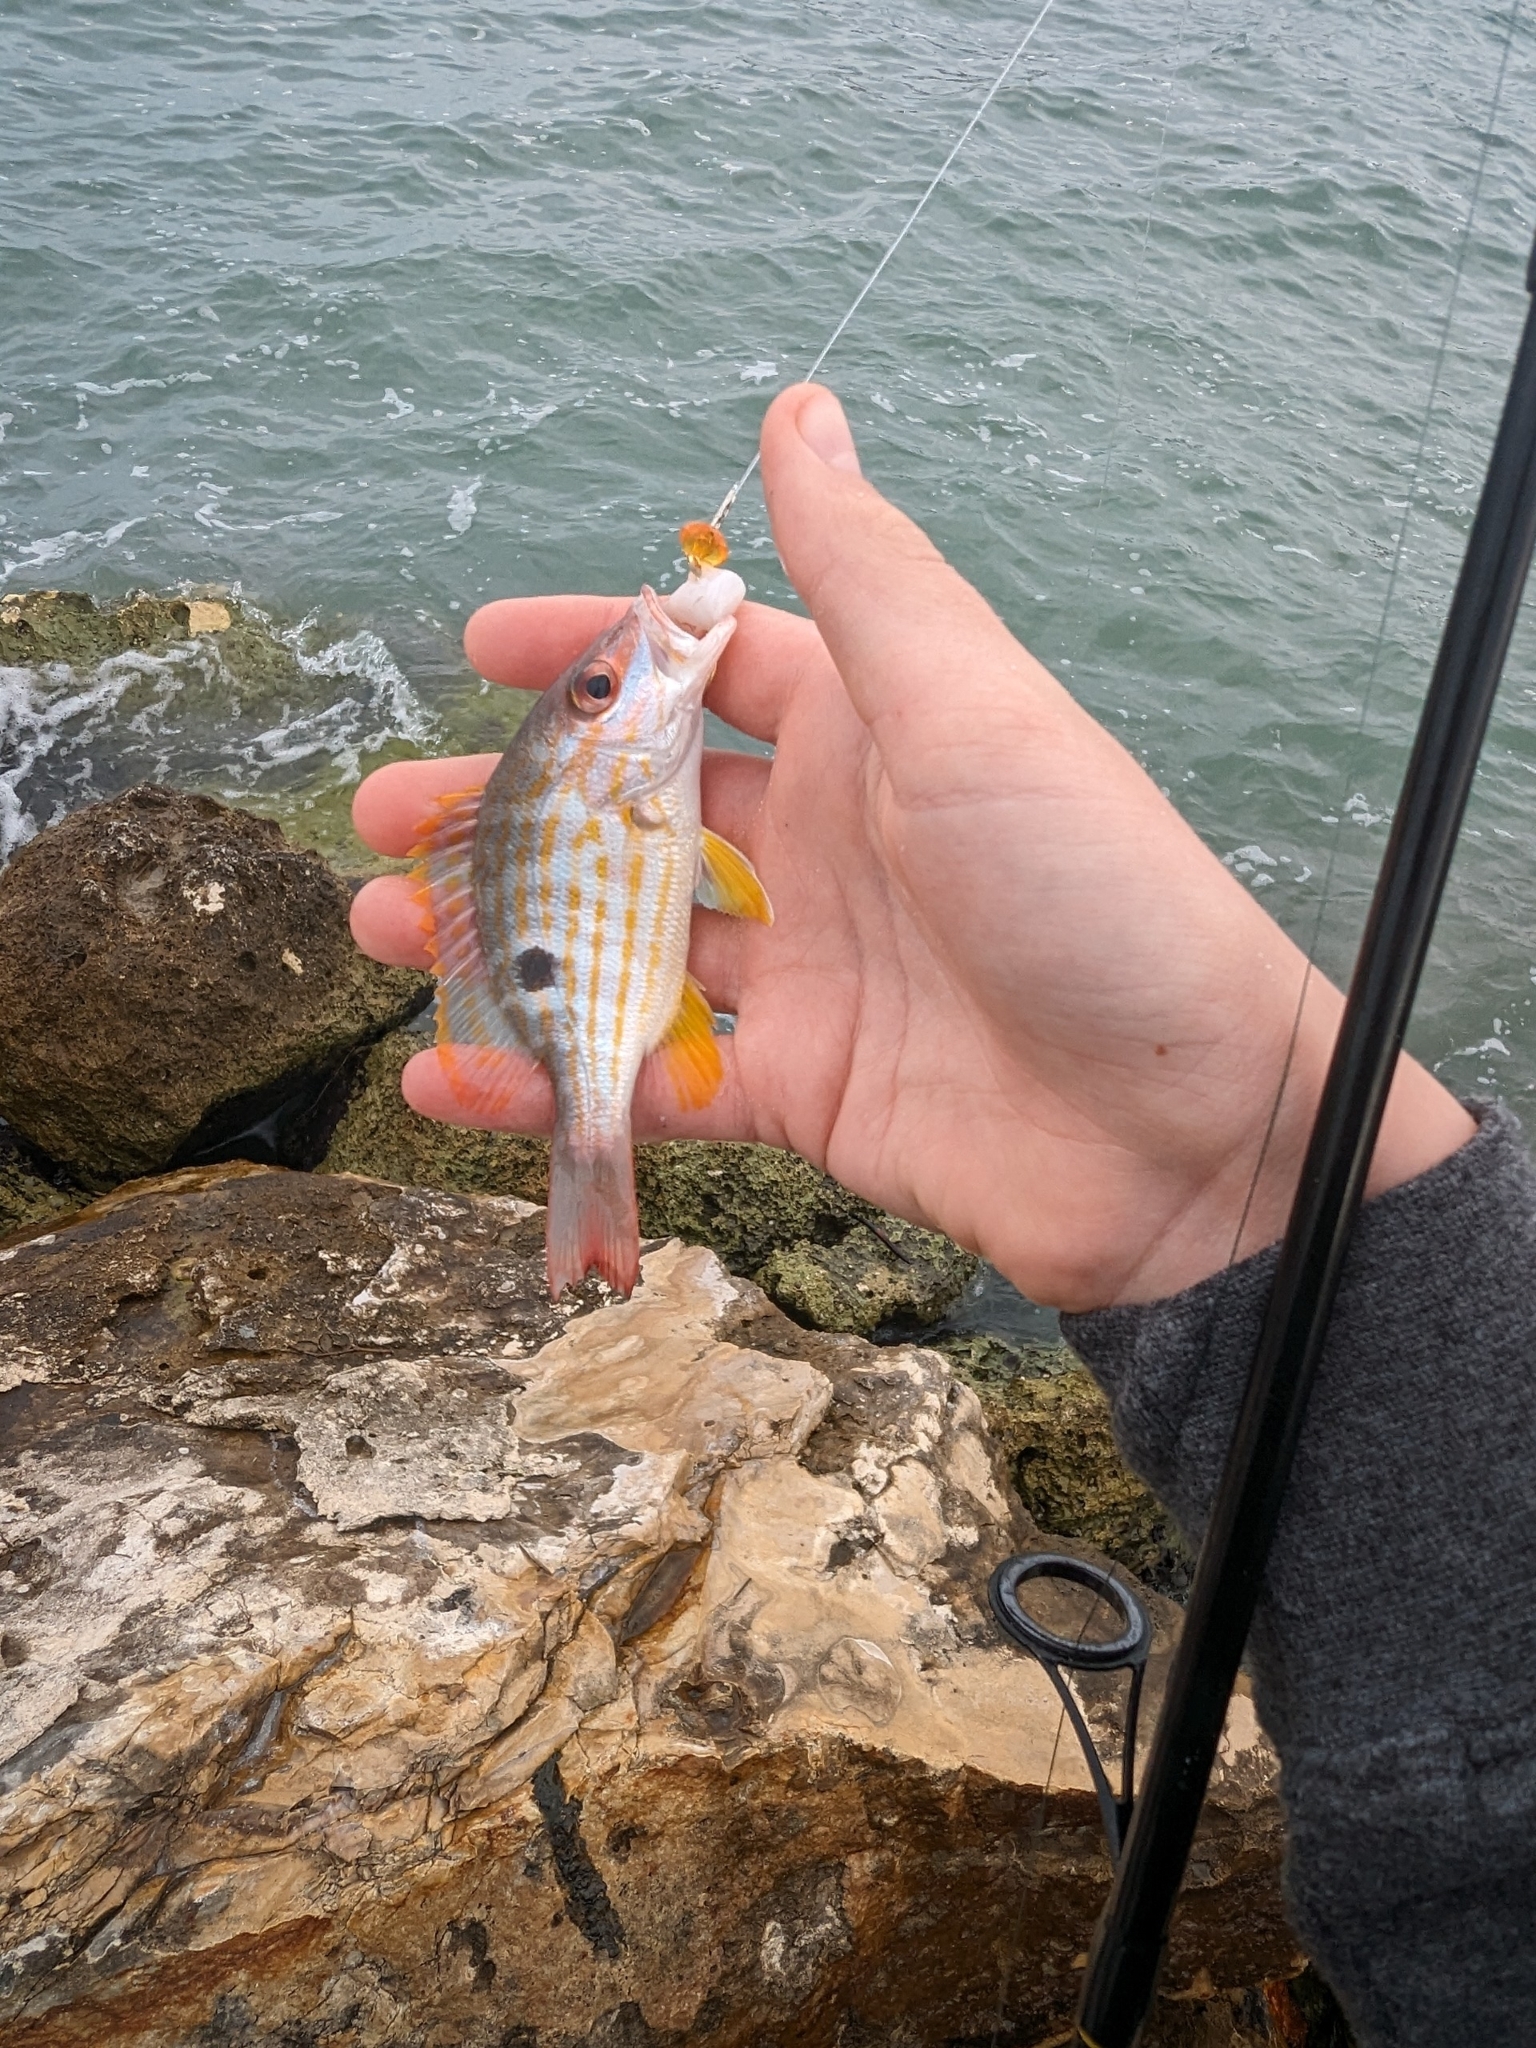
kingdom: Animalia
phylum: Chordata
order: Perciformes
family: Lutjanidae
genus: Lutjanus
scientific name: Lutjanus synagris
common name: Lane snapper
